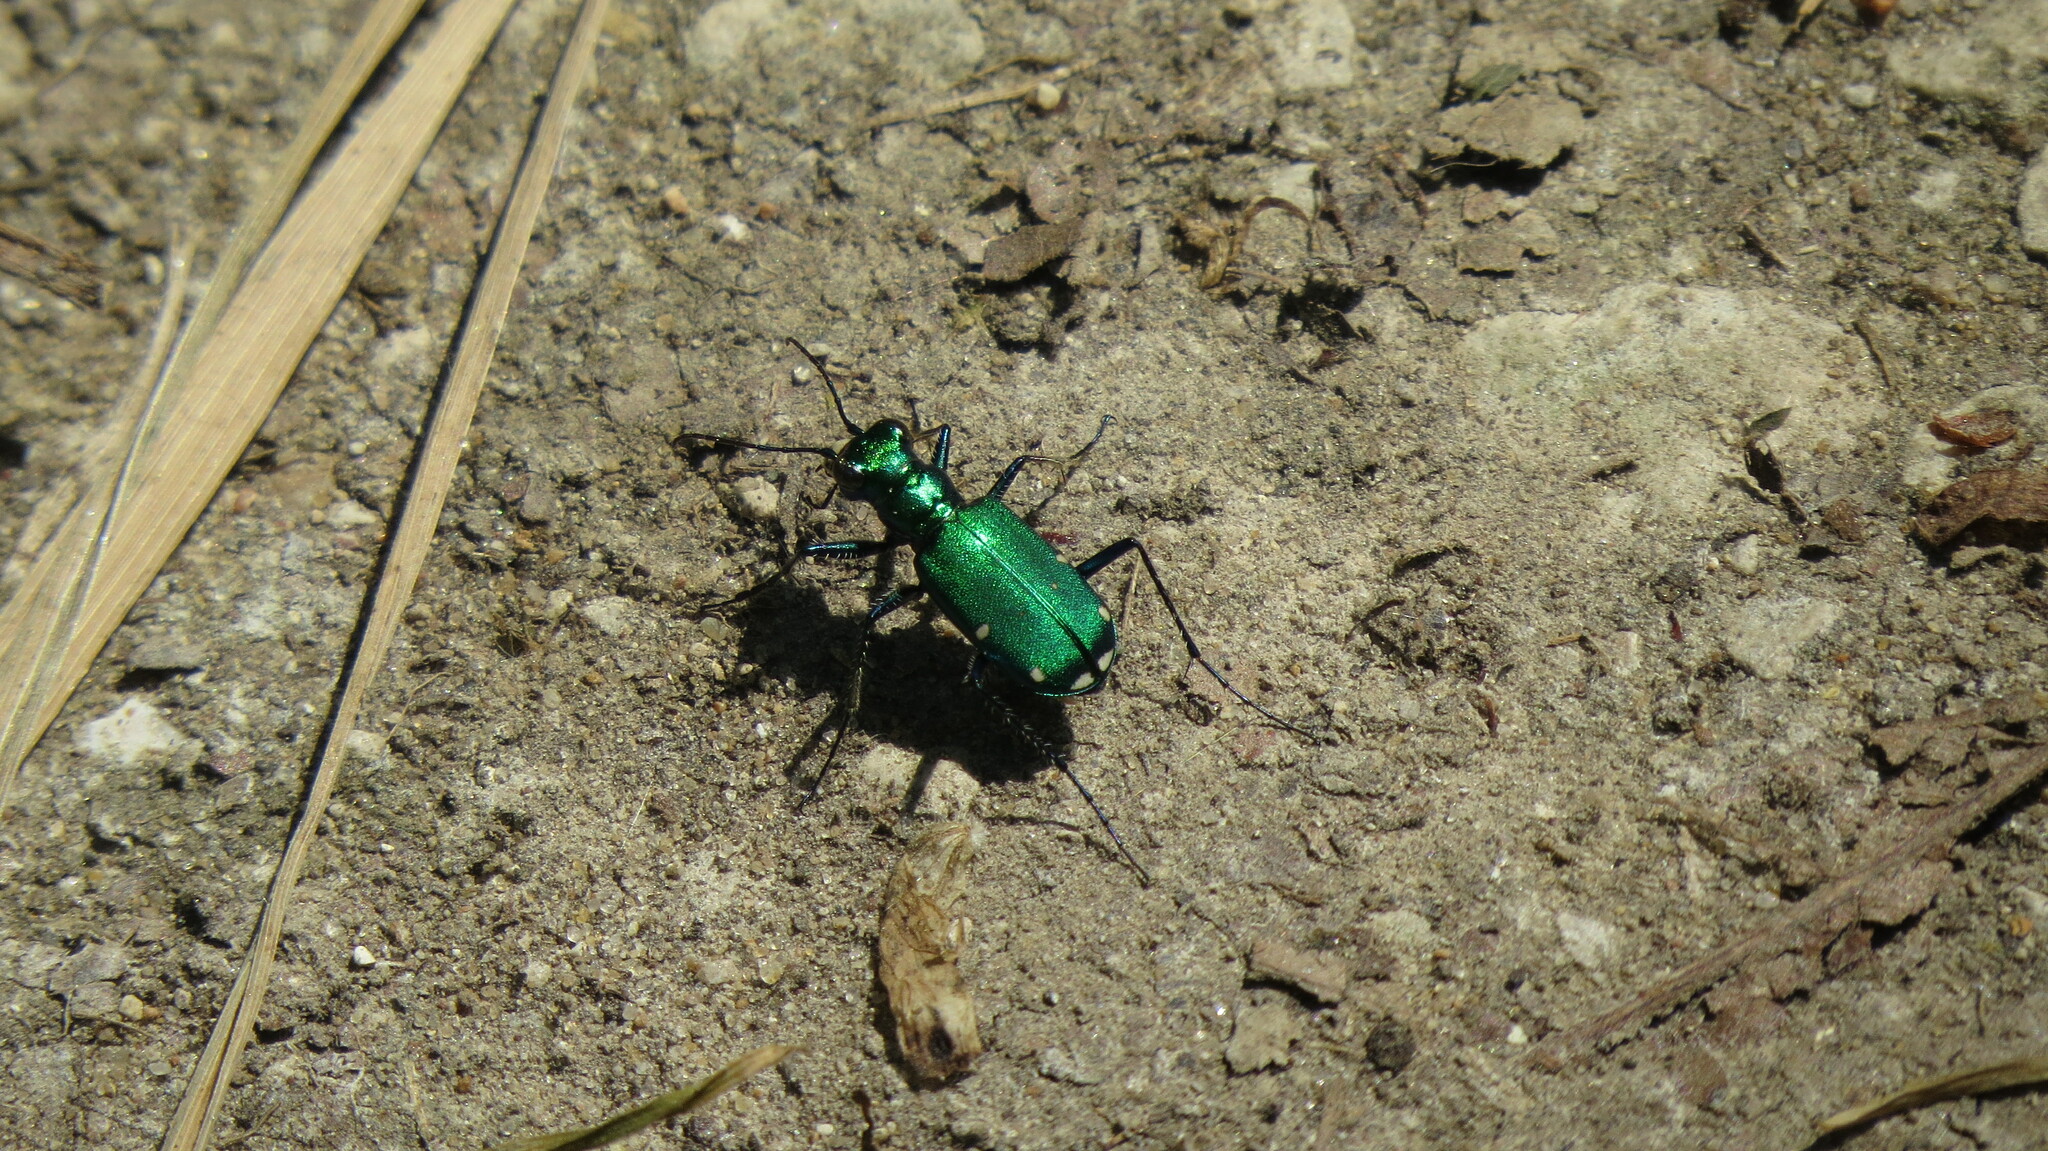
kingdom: Animalia
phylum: Arthropoda
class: Insecta
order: Coleoptera
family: Carabidae
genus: Cicindela
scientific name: Cicindela sexguttata
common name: Six-spotted tiger beetle
